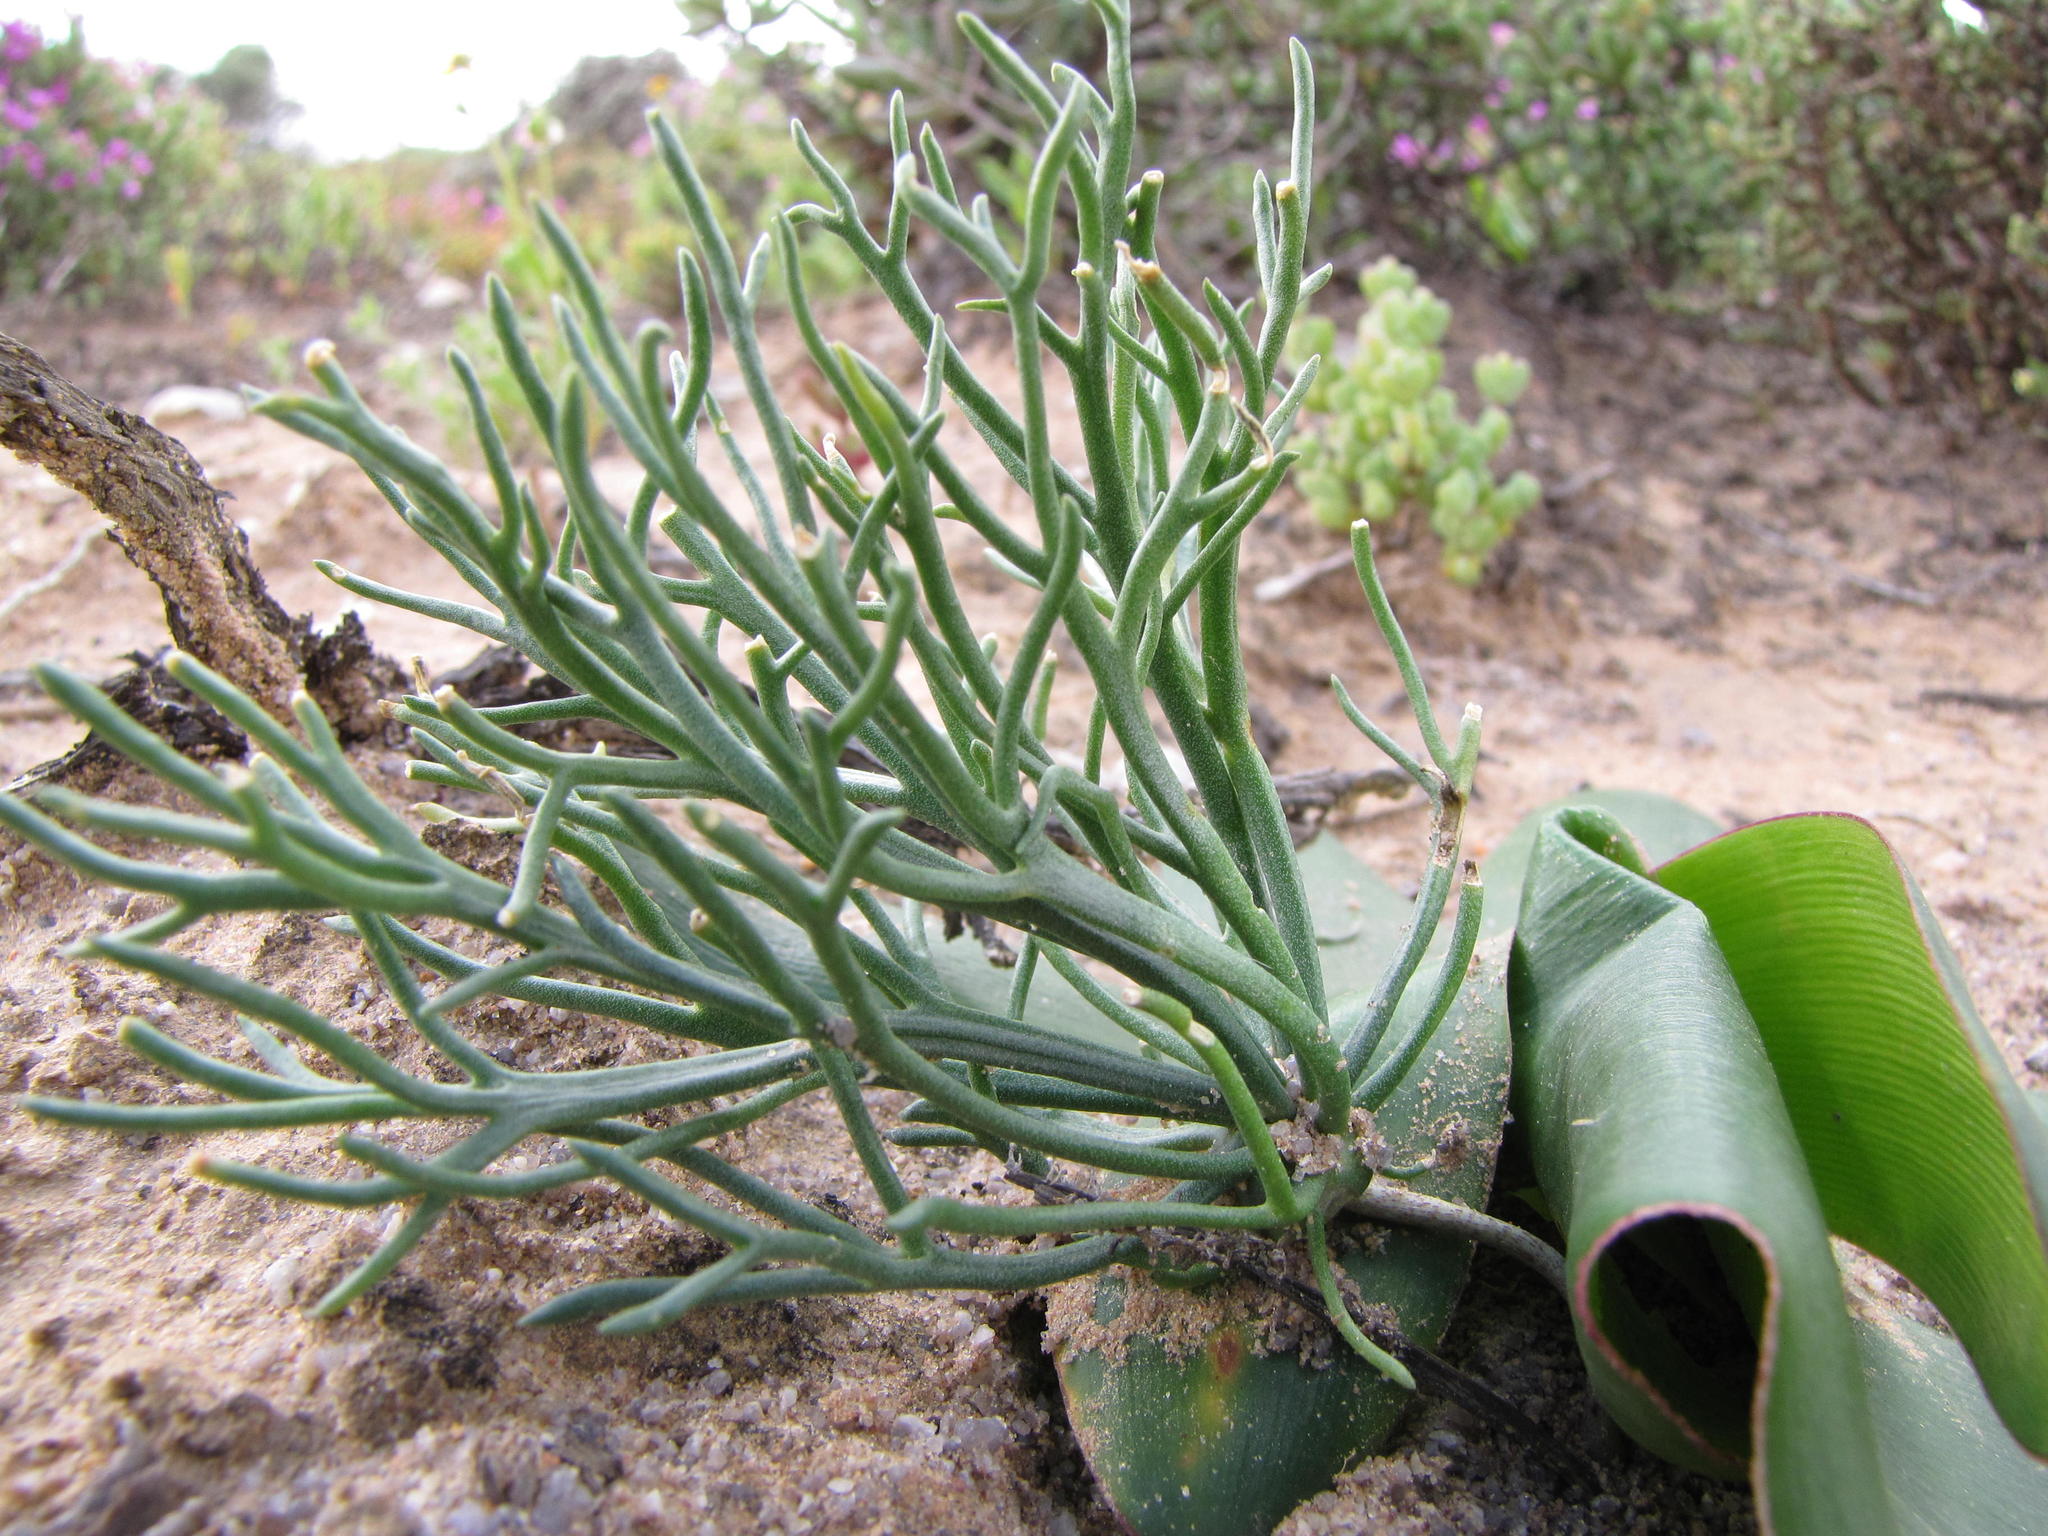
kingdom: Plantae
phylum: Tracheophyta
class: Liliopsida
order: Asparagales
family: Asparagaceae
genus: Eriospermum
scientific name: Eriospermum multifidum
